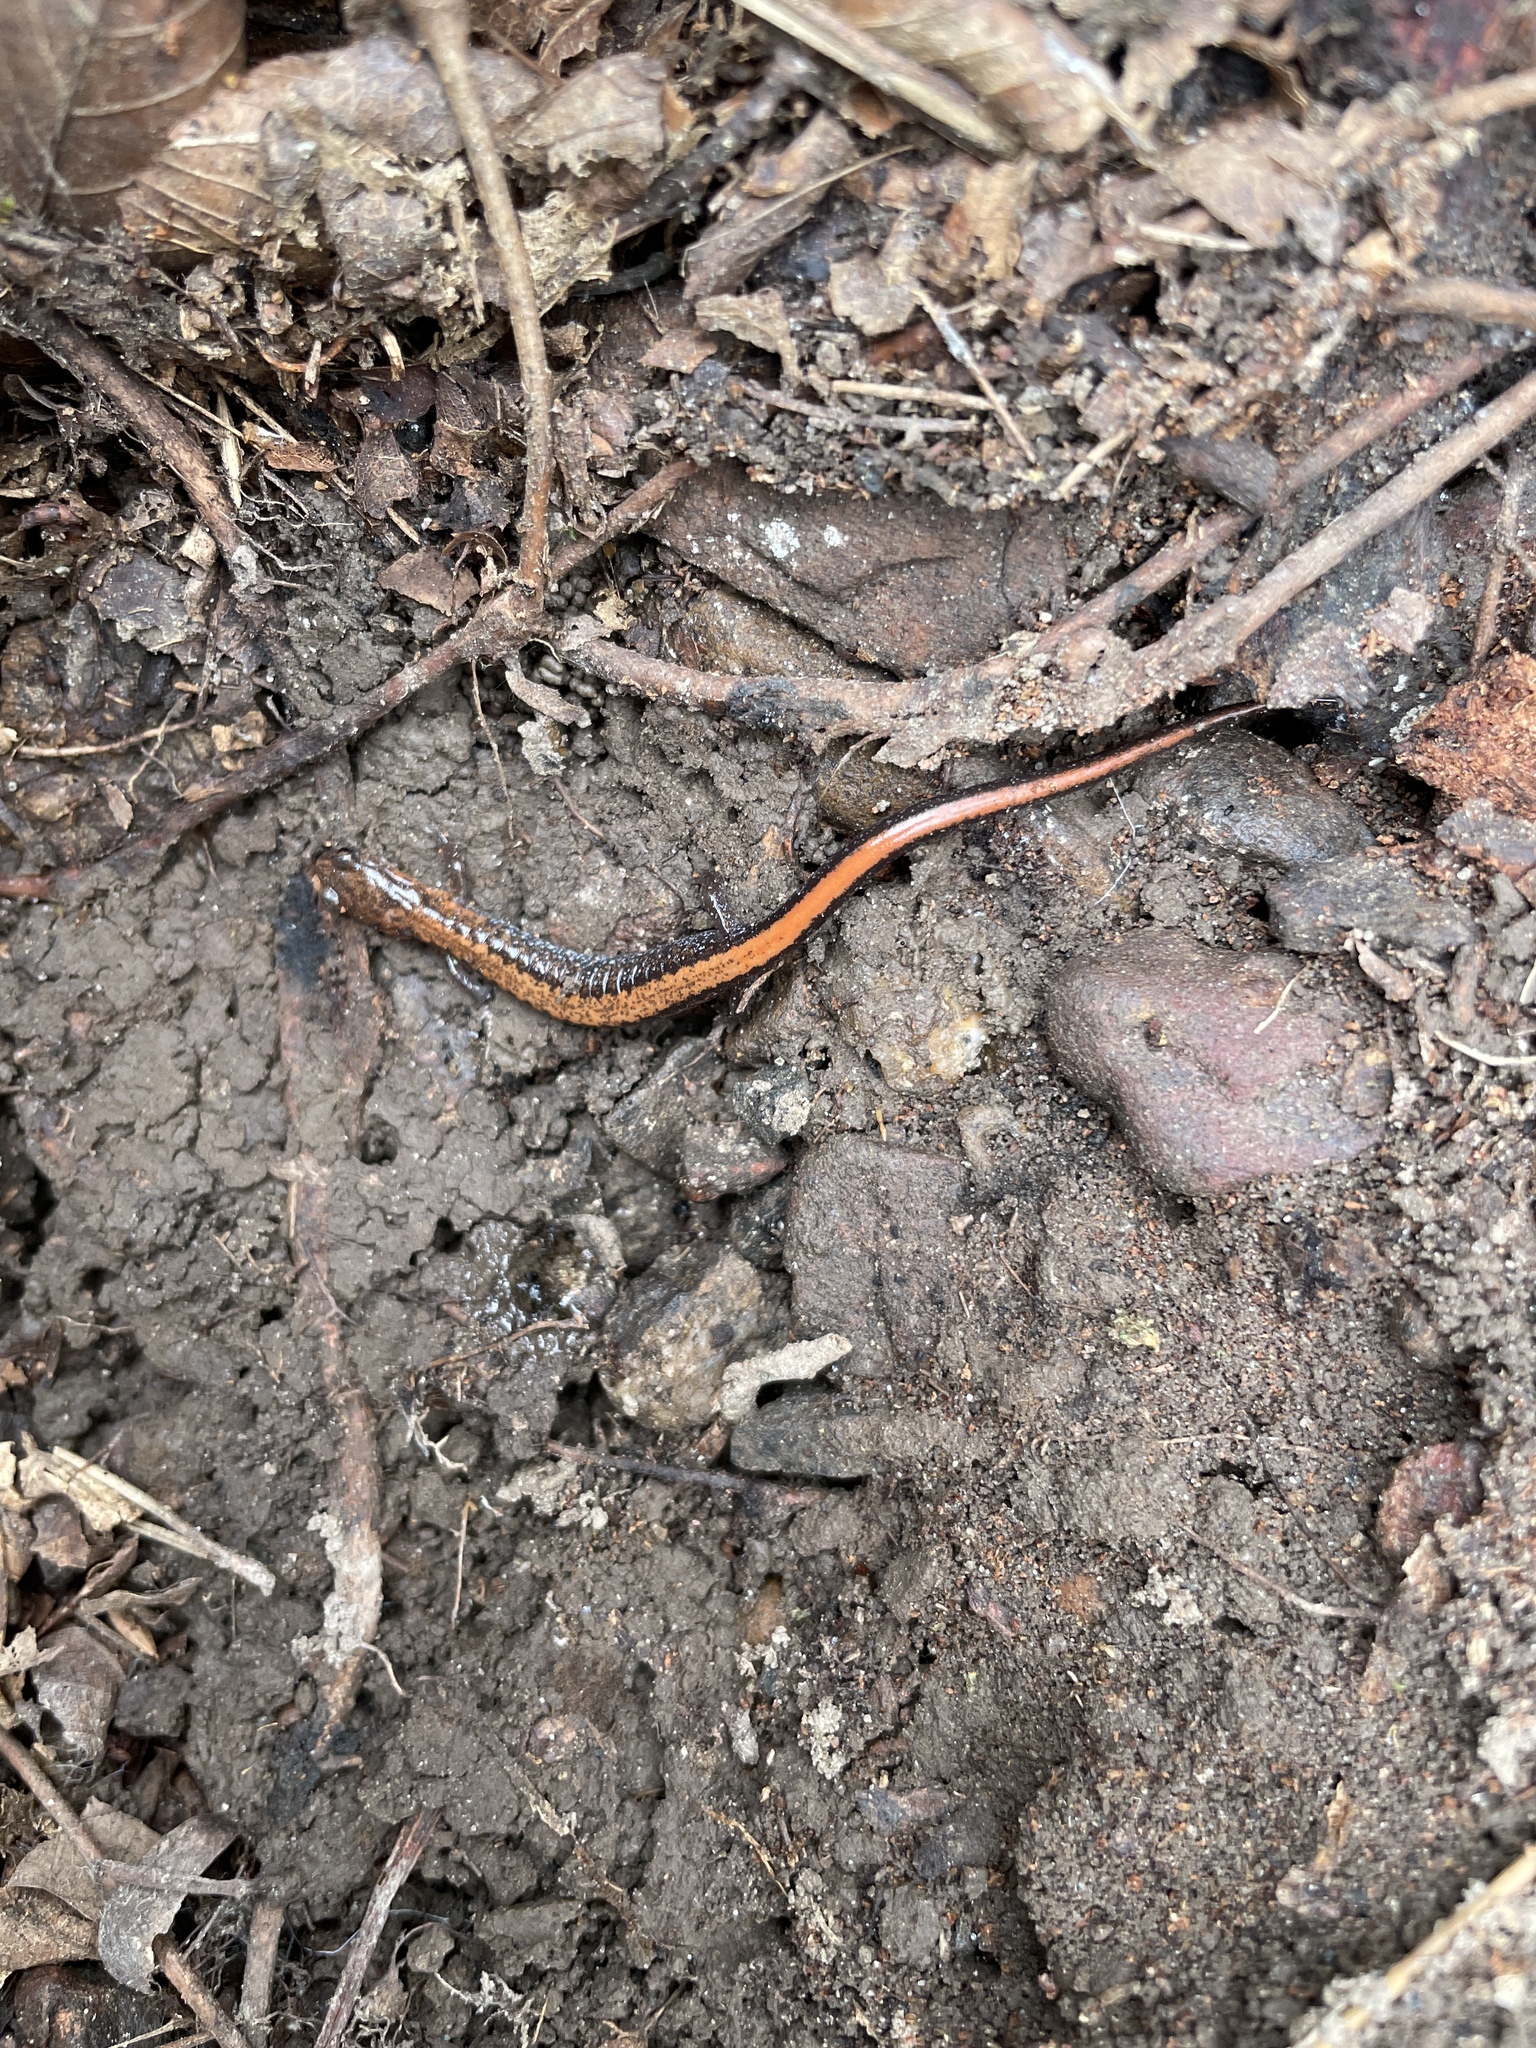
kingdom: Animalia
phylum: Chordata
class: Amphibia
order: Caudata
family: Plethodontidae
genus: Plethodon
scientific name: Plethodon serratus
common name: Southern red-backed salamander
